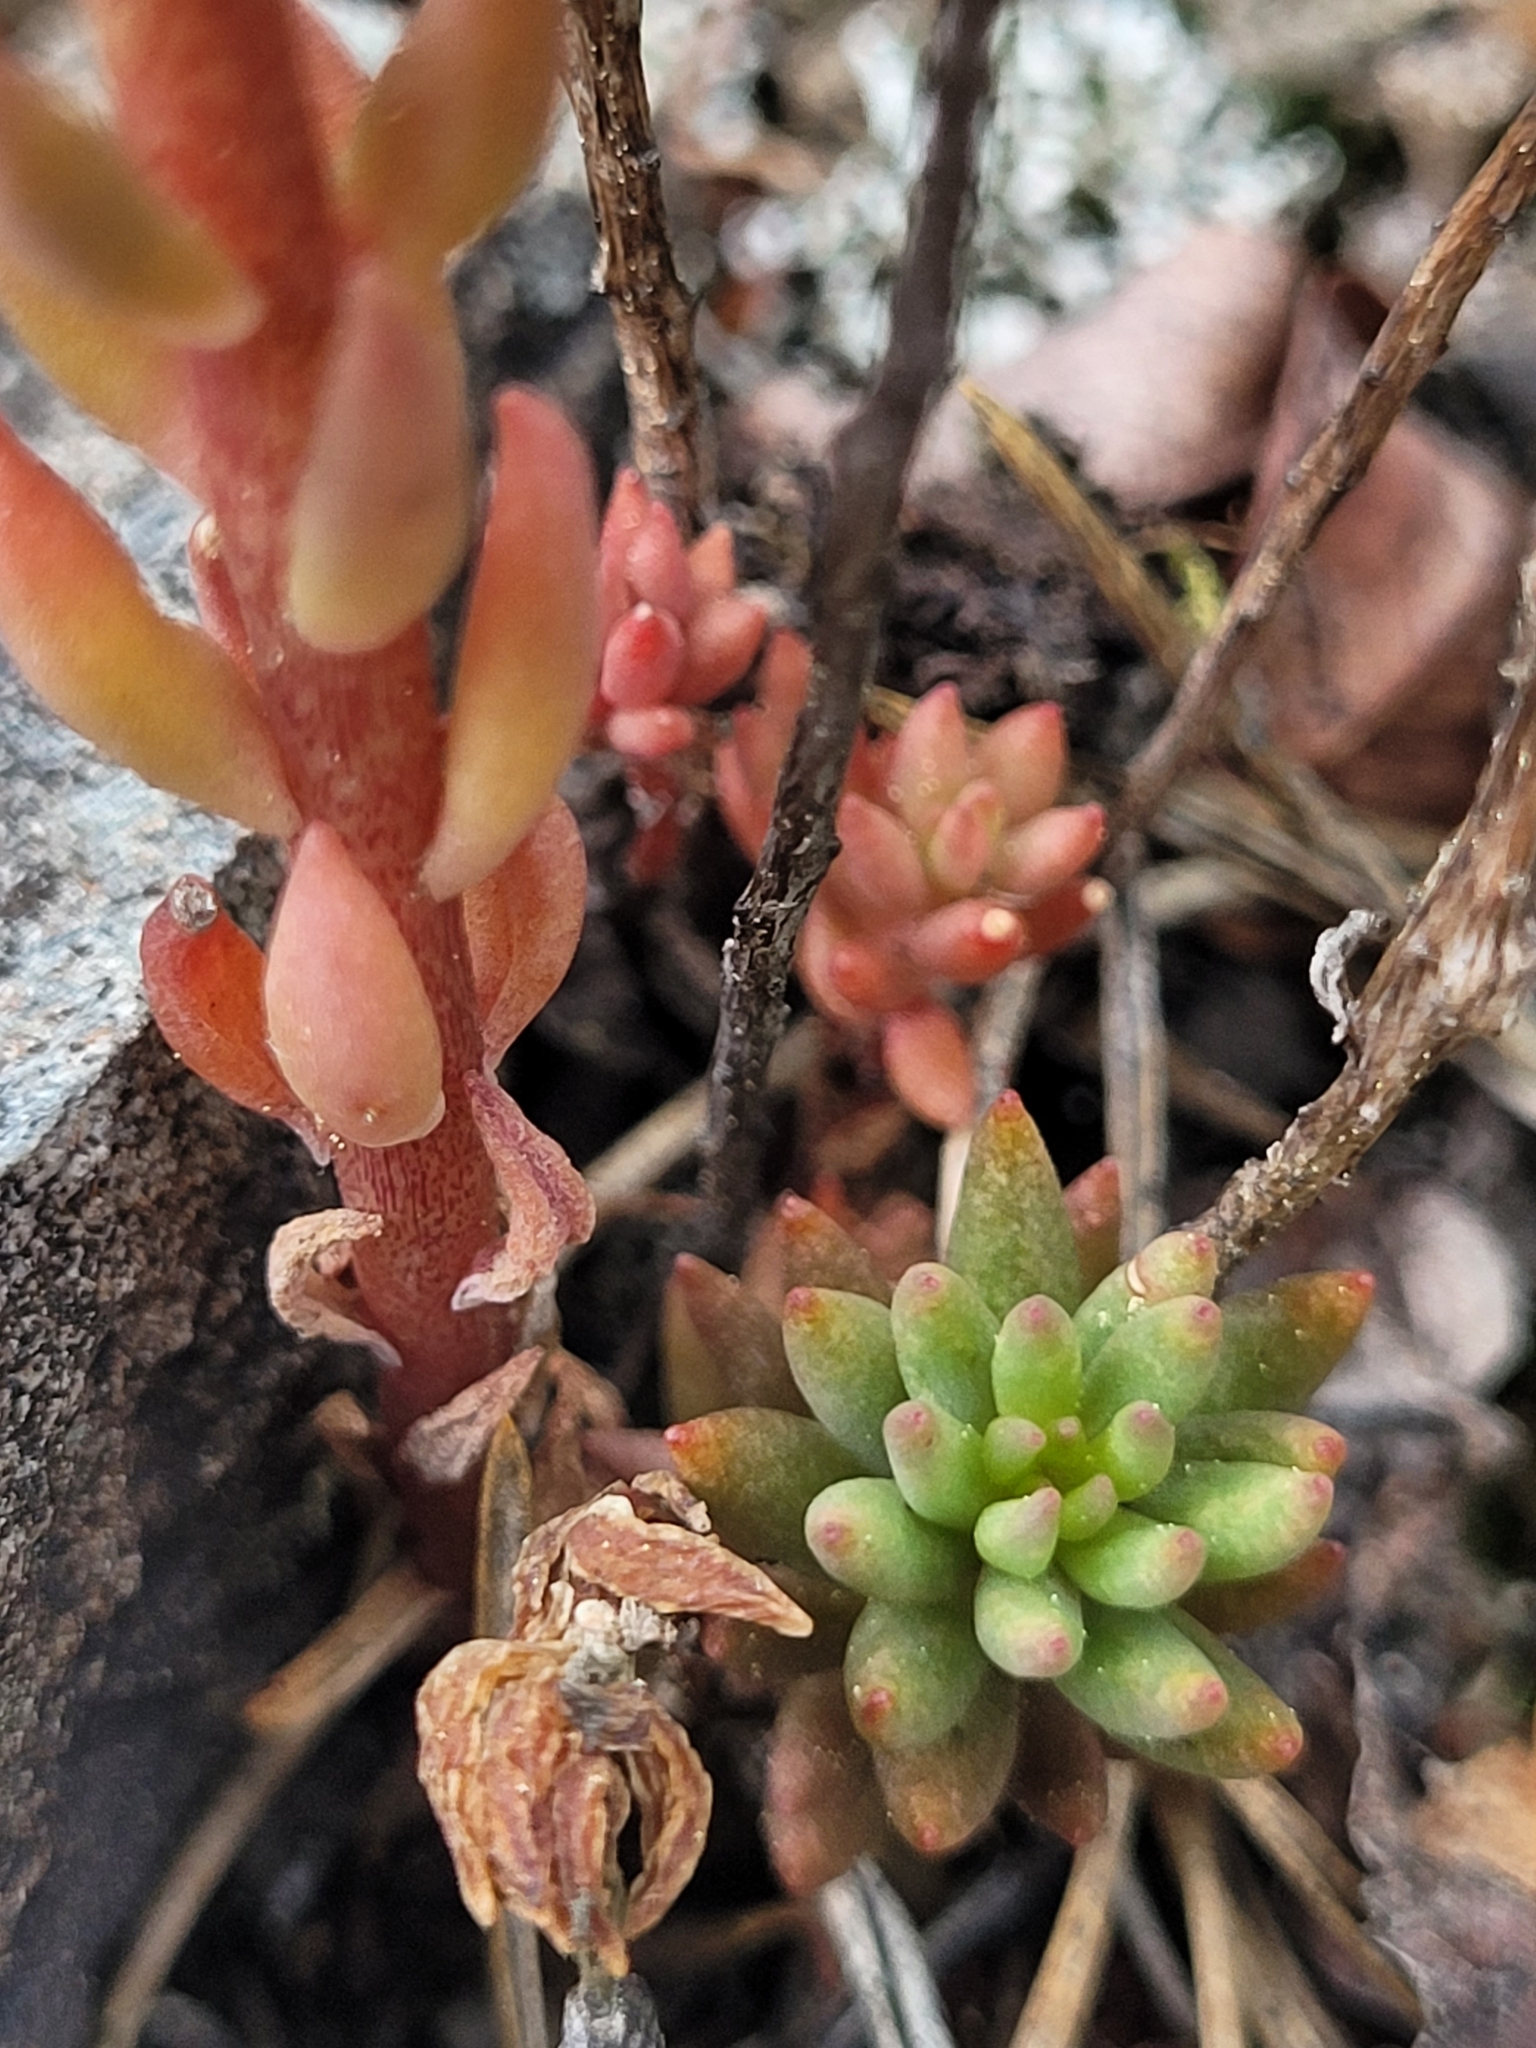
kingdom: Plantae
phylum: Tracheophyta
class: Magnoliopsida
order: Saxifragales
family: Crassulaceae
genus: Sedum
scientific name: Sedum lanceolatum
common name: Common stonecrop
